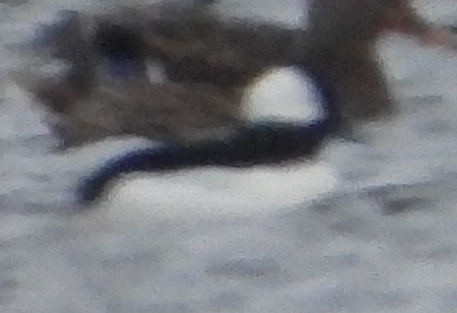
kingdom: Animalia
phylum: Chordata
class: Aves
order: Anseriformes
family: Anatidae
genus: Bucephala
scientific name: Bucephala albeola
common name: Bufflehead
